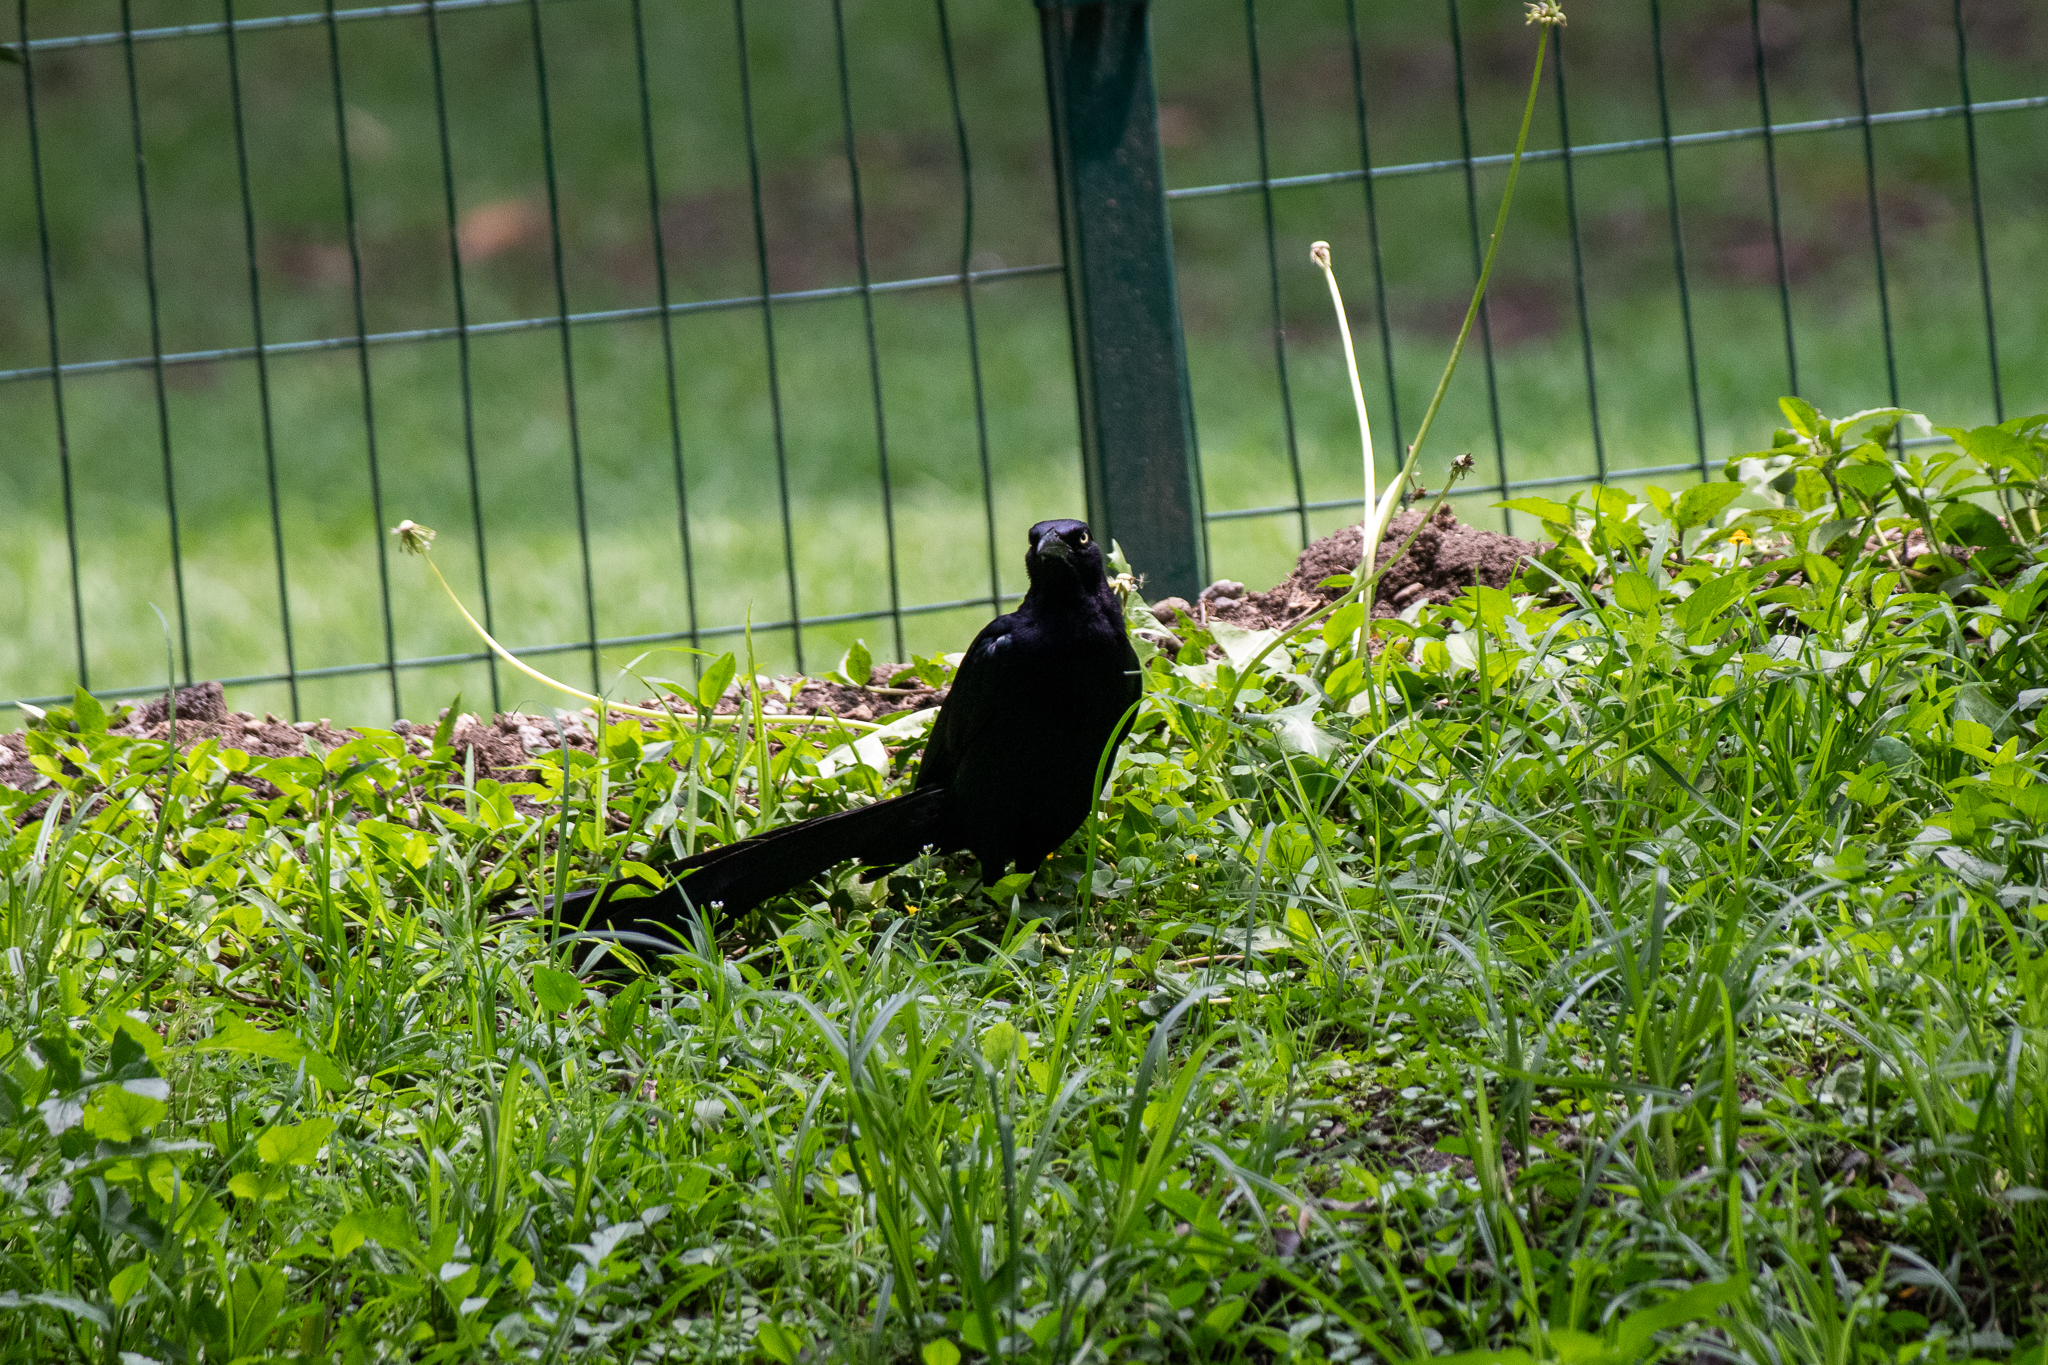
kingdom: Animalia
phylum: Chordata
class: Aves
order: Passeriformes
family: Icteridae
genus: Quiscalus
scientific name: Quiscalus mexicanus
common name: Great-tailed grackle
